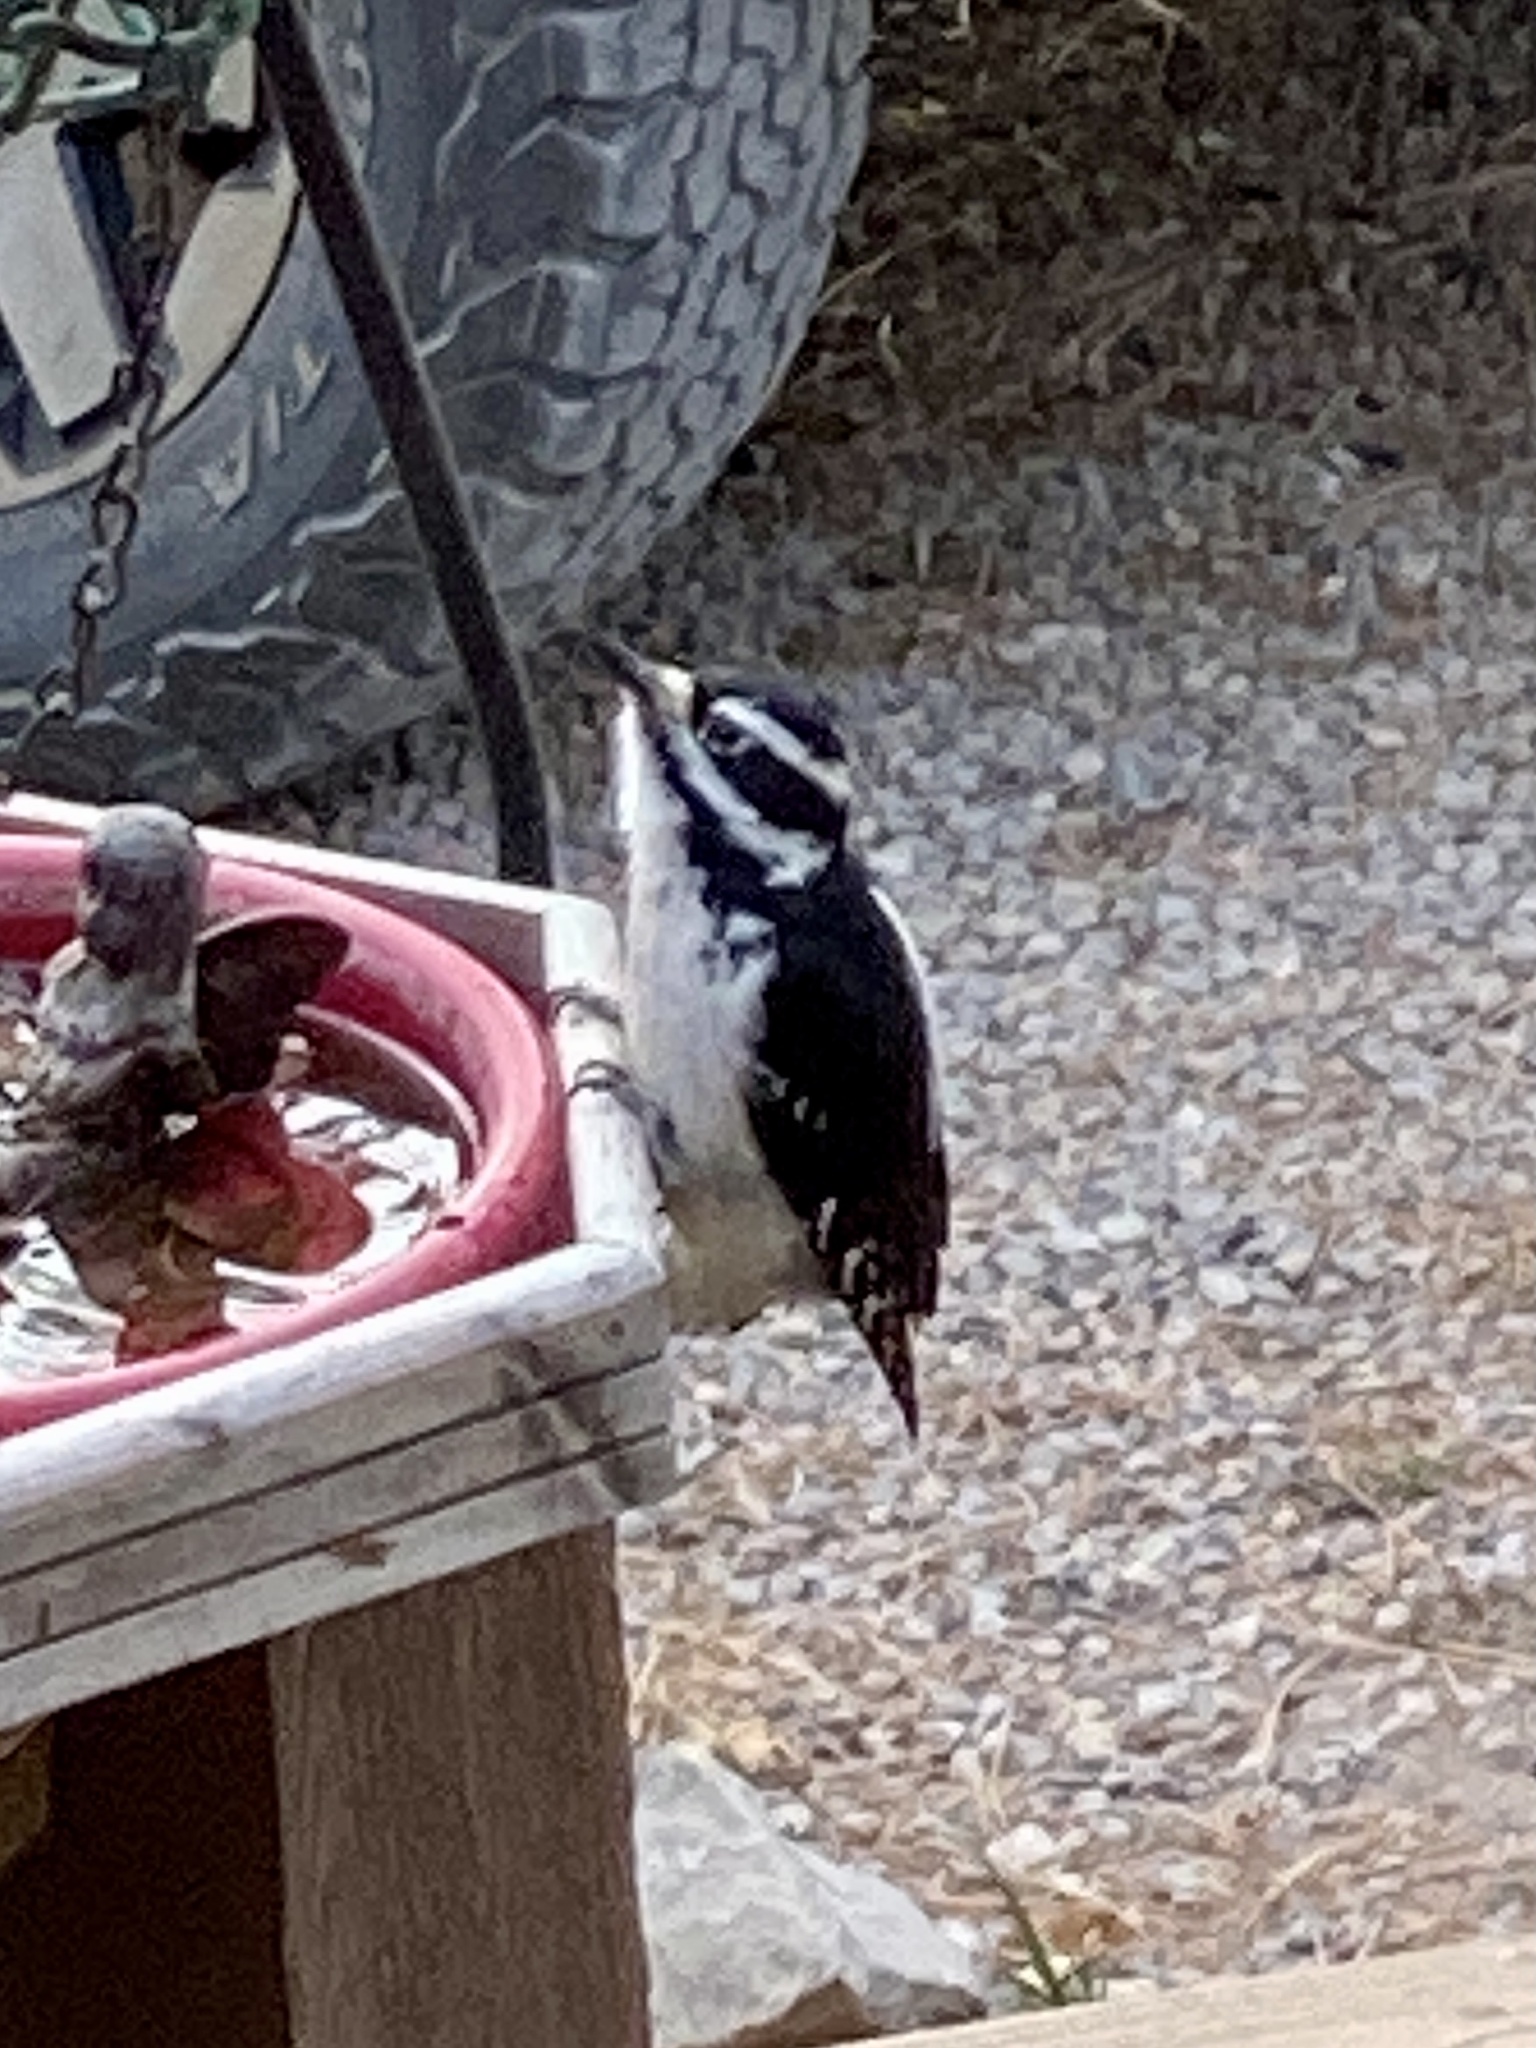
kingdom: Animalia
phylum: Chordata
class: Aves
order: Piciformes
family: Picidae
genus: Leuconotopicus
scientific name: Leuconotopicus villosus
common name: Hairy woodpecker
